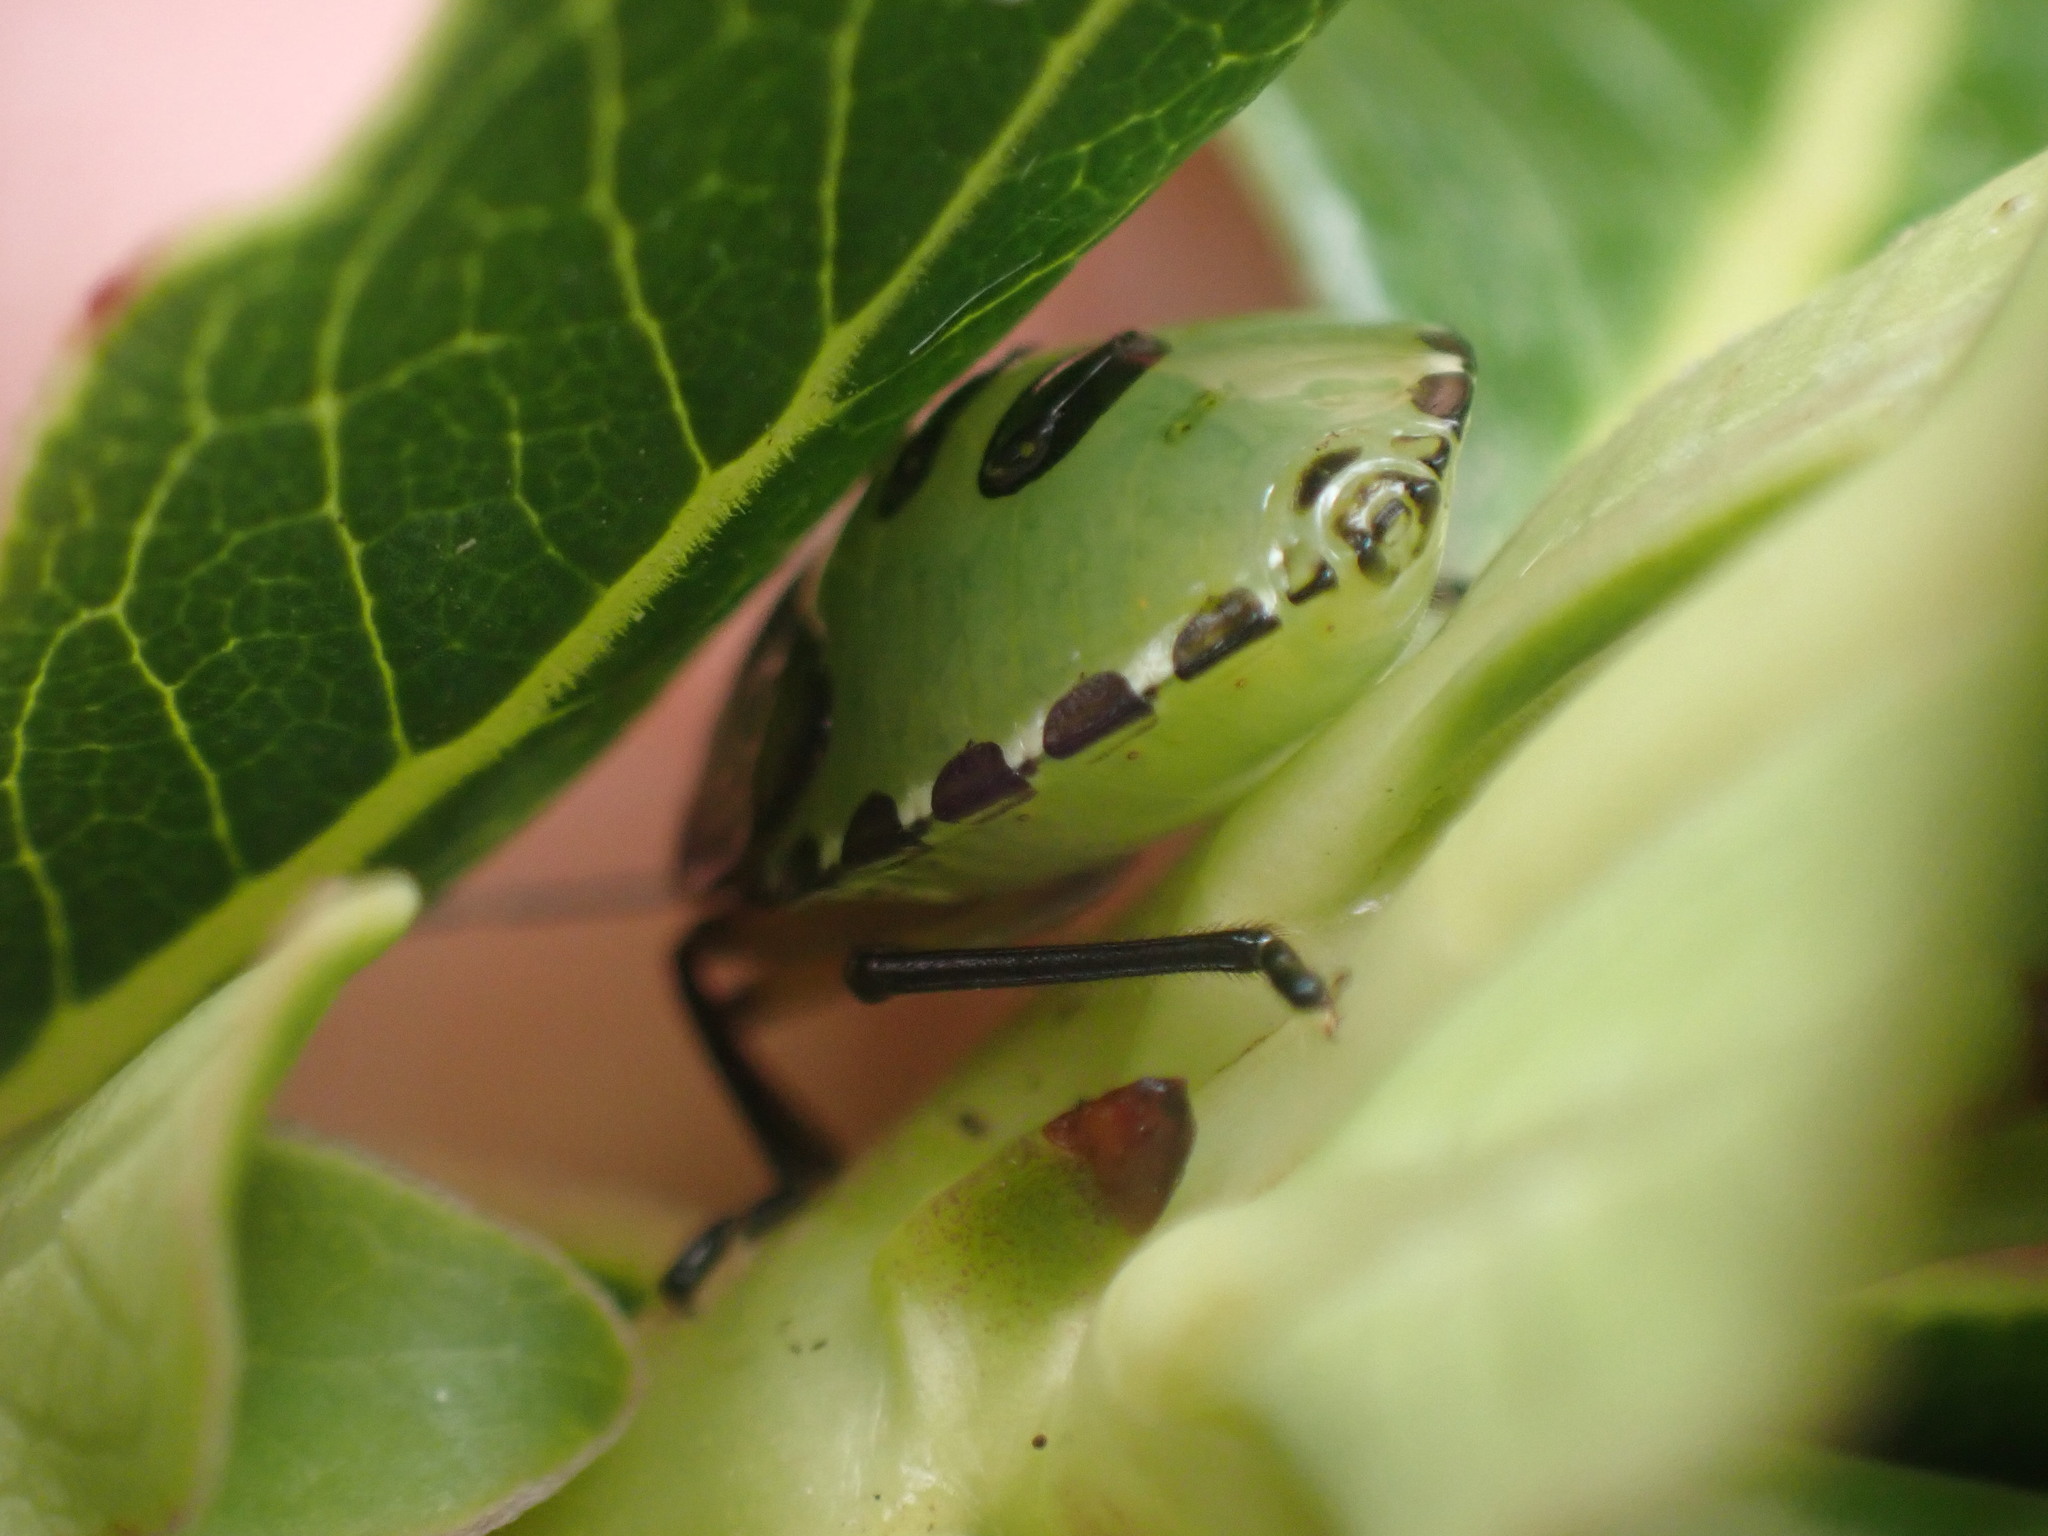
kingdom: Animalia
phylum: Arthropoda
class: Insecta
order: Hemiptera
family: Pentatomidae
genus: Glaucias
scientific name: Glaucias amyota
